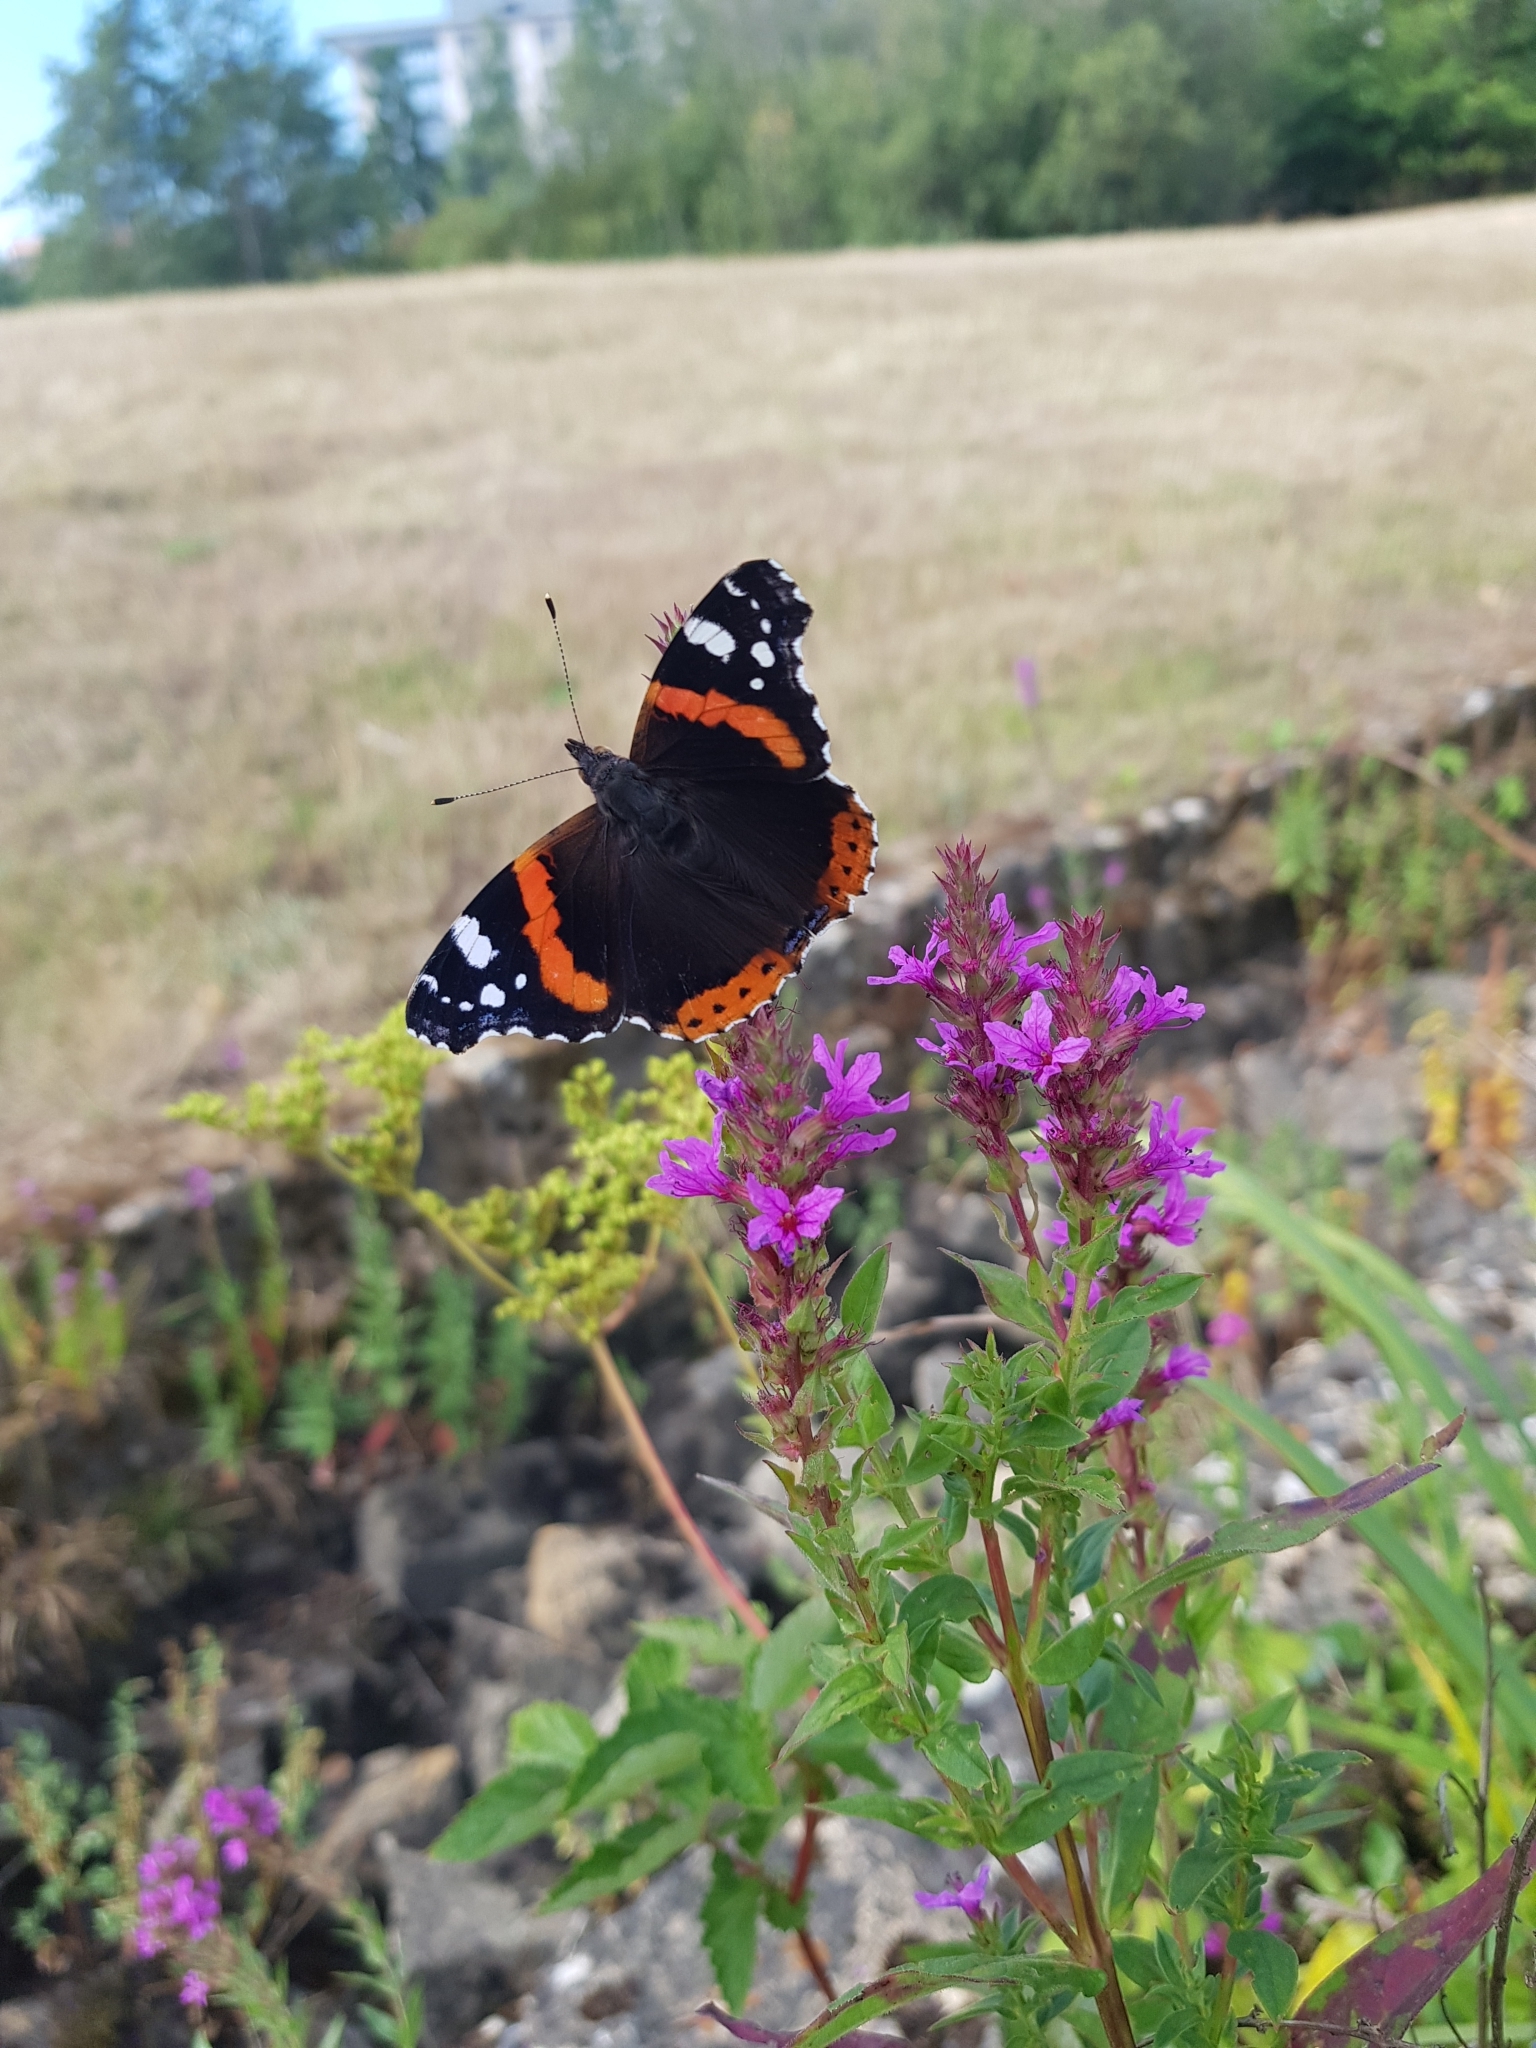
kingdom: Animalia
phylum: Arthropoda
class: Insecta
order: Lepidoptera
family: Nymphalidae
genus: Vanessa
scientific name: Vanessa atalanta
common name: Red admiral
